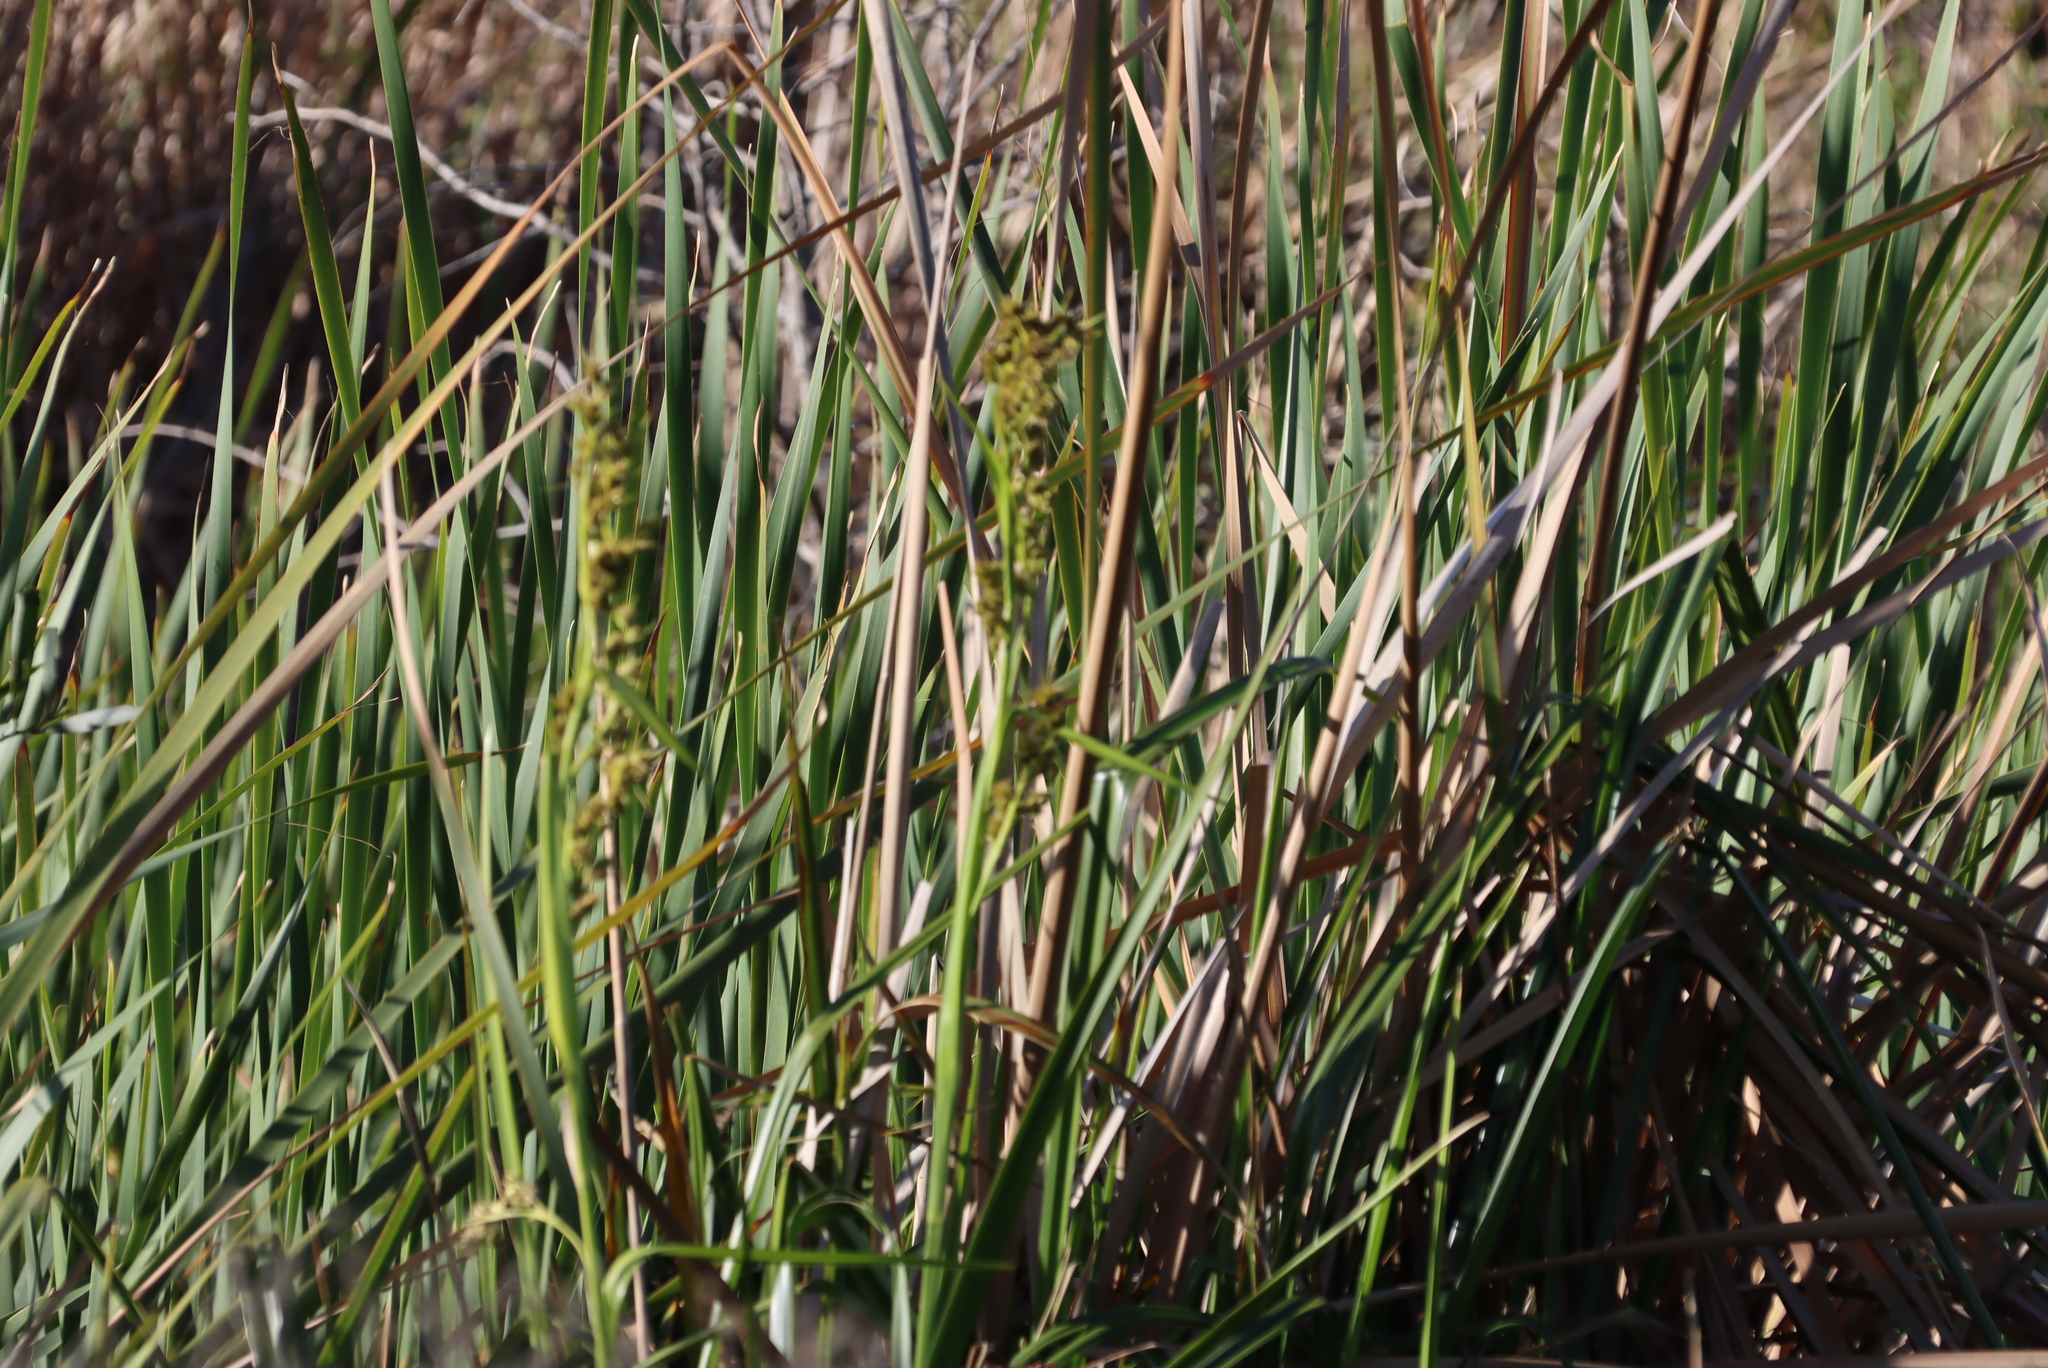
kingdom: Plantae
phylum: Tracheophyta
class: Liliopsida
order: Poales
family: Cyperaceae
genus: Carpha
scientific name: Carpha glomerata
